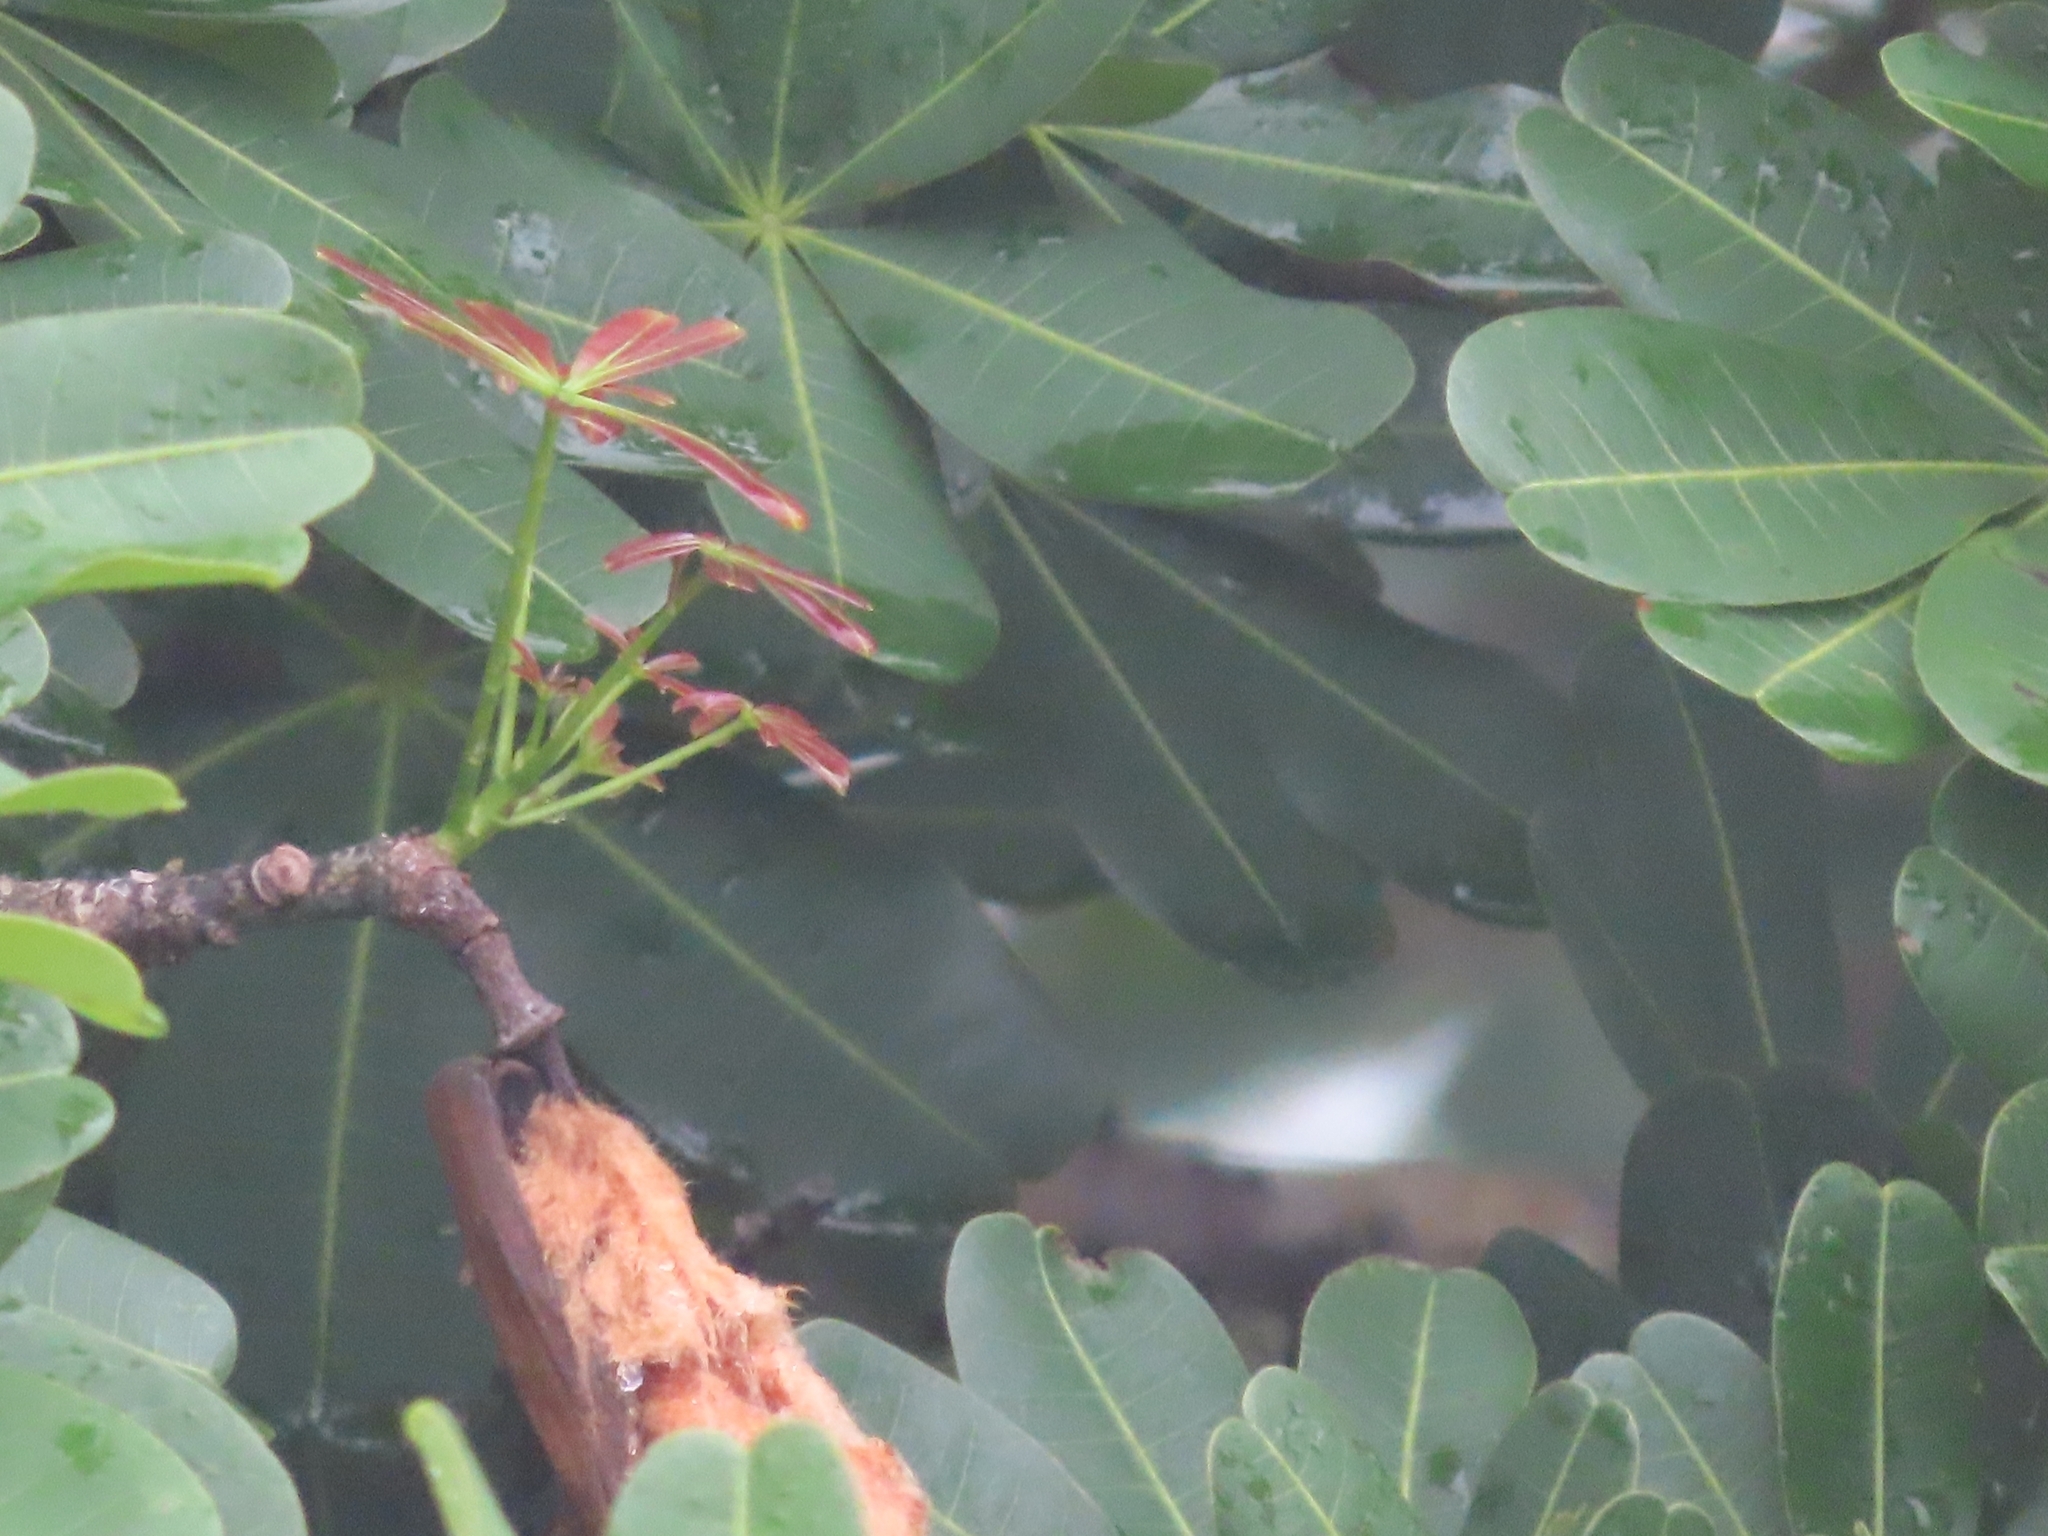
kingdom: Plantae
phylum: Tracheophyta
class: Magnoliopsida
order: Malvales
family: Malvaceae
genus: Pachira
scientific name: Pachira sessilis
